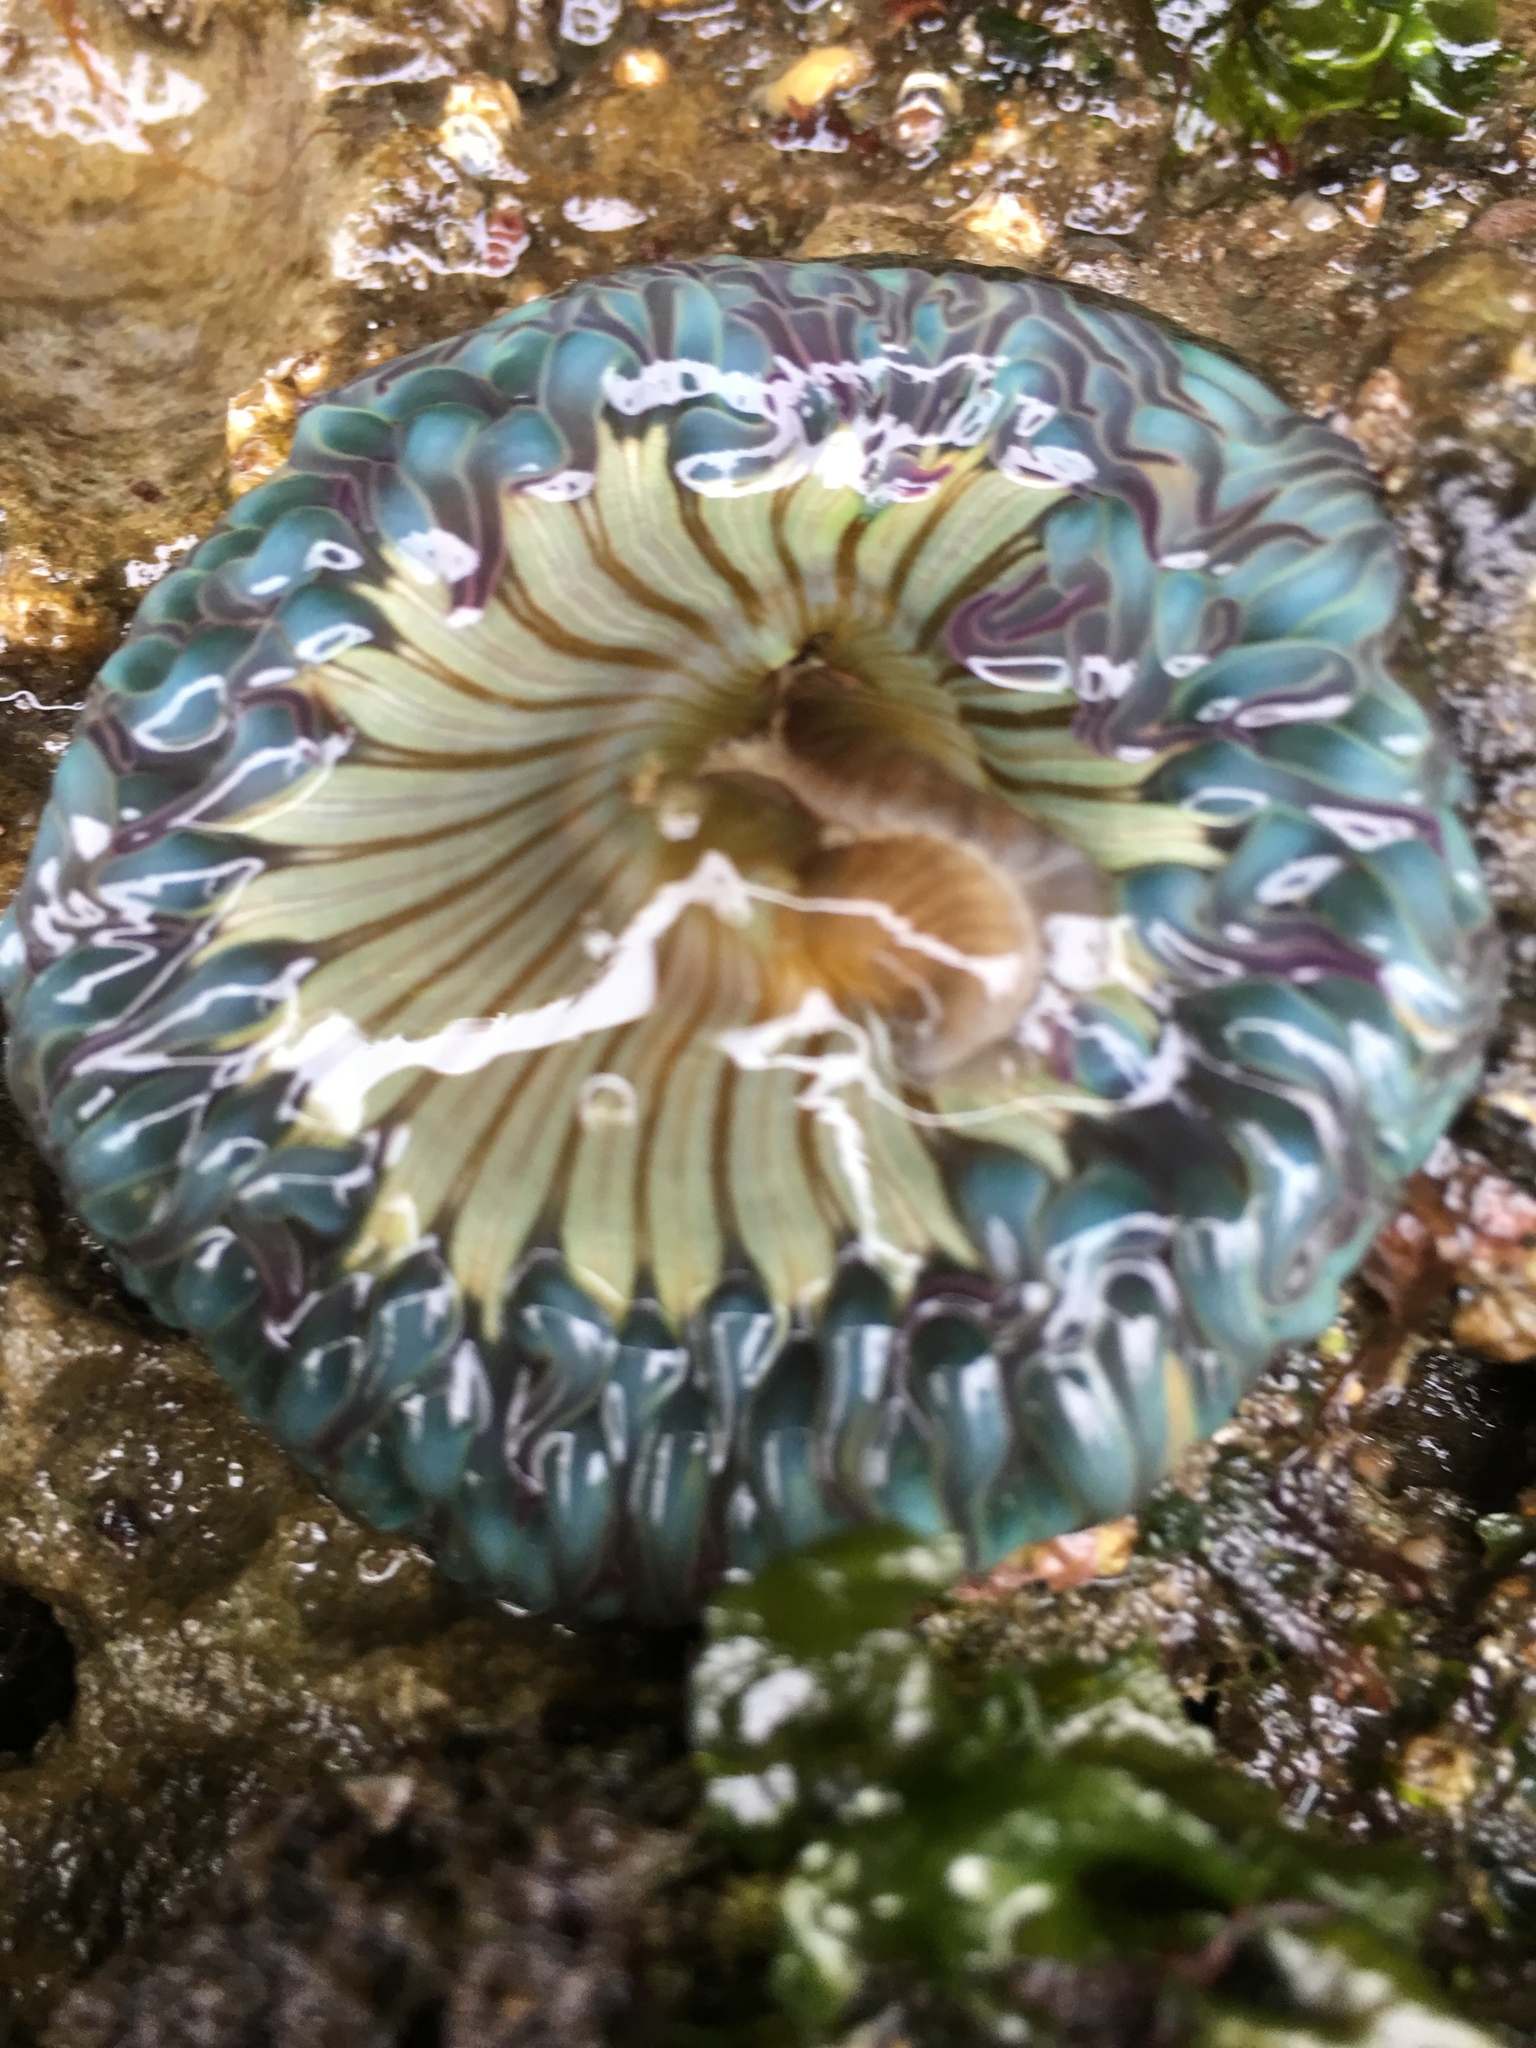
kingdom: Animalia
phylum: Cnidaria
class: Anthozoa
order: Actiniaria
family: Actiniidae
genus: Anthopleura
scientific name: Anthopleura sola
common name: Sun anemone
